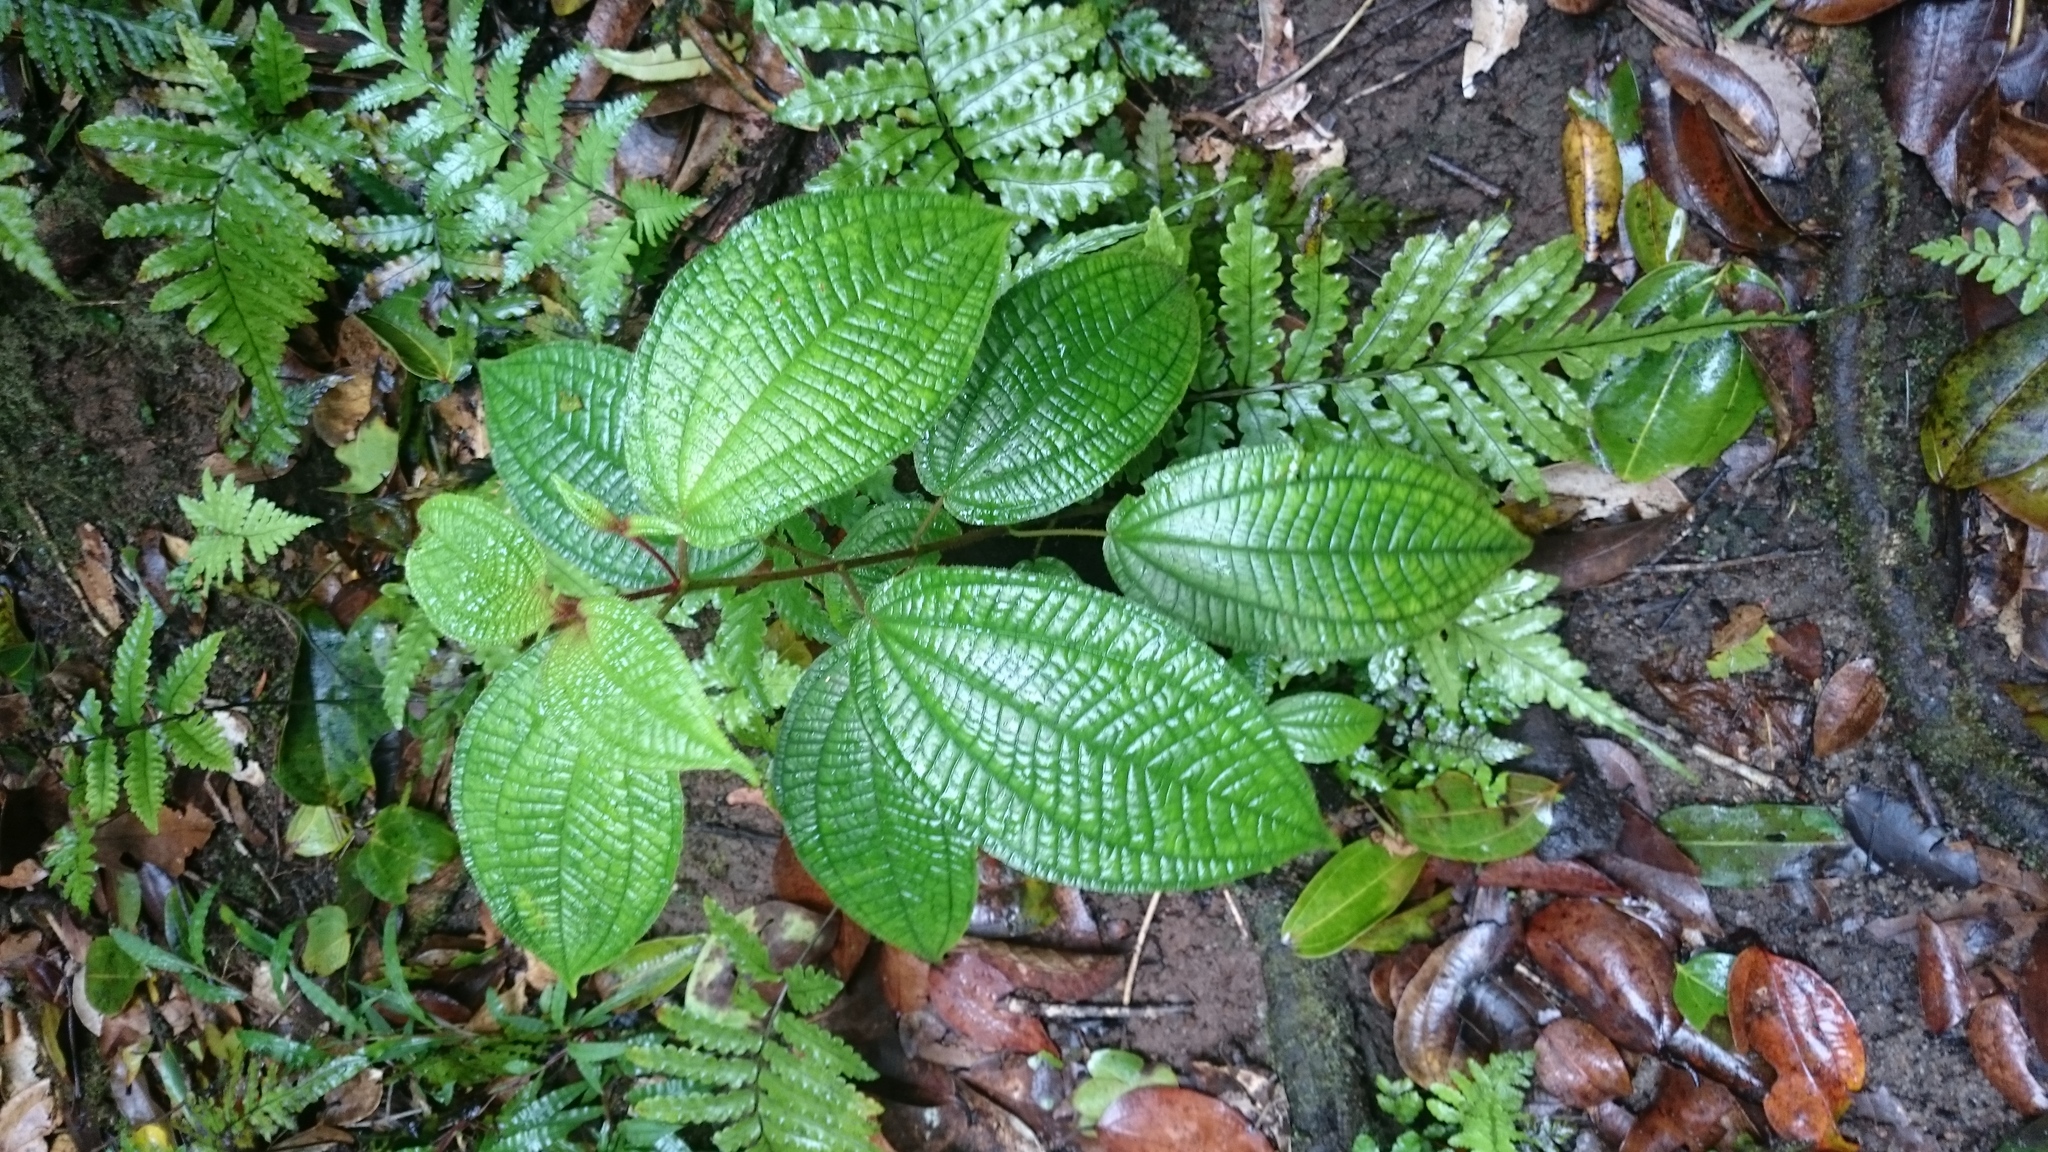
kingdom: Plantae
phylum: Tracheophyta
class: Magnoliopsida
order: Myrtales
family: Melastomataceae
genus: Miconia
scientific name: Miconia crenata
